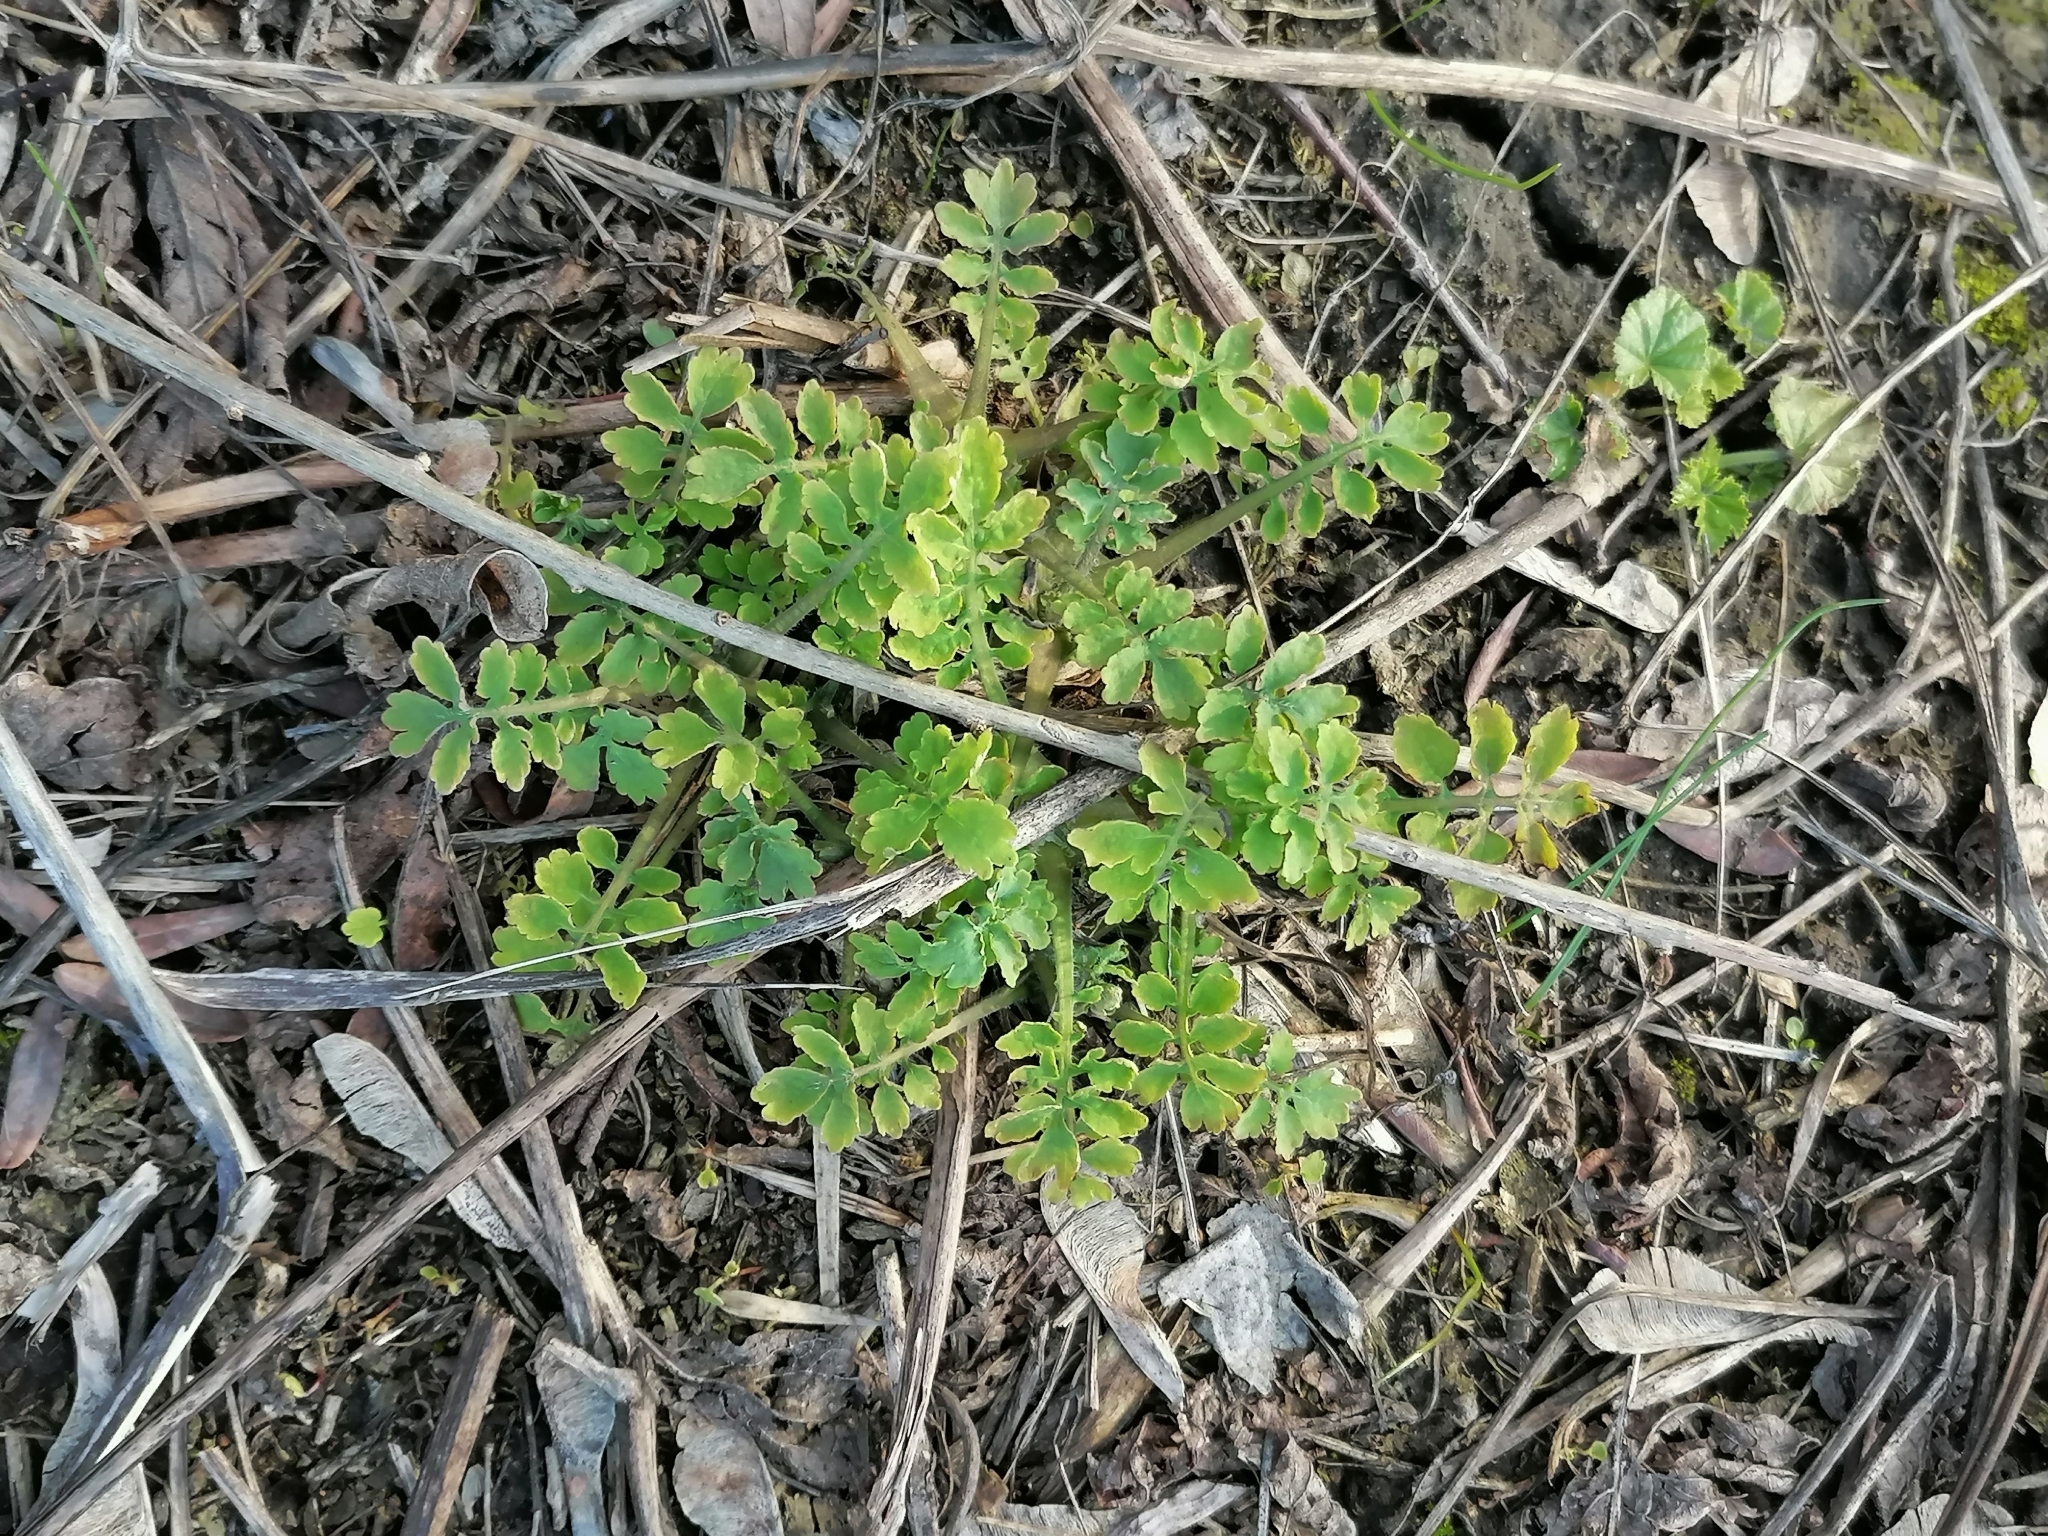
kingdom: Plantae
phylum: Tracheophyta
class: Magnoliopsida
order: Ranunculales
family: Papaveraceae
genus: Chelidonium
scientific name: Chelidonium majus
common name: Greater celandine
